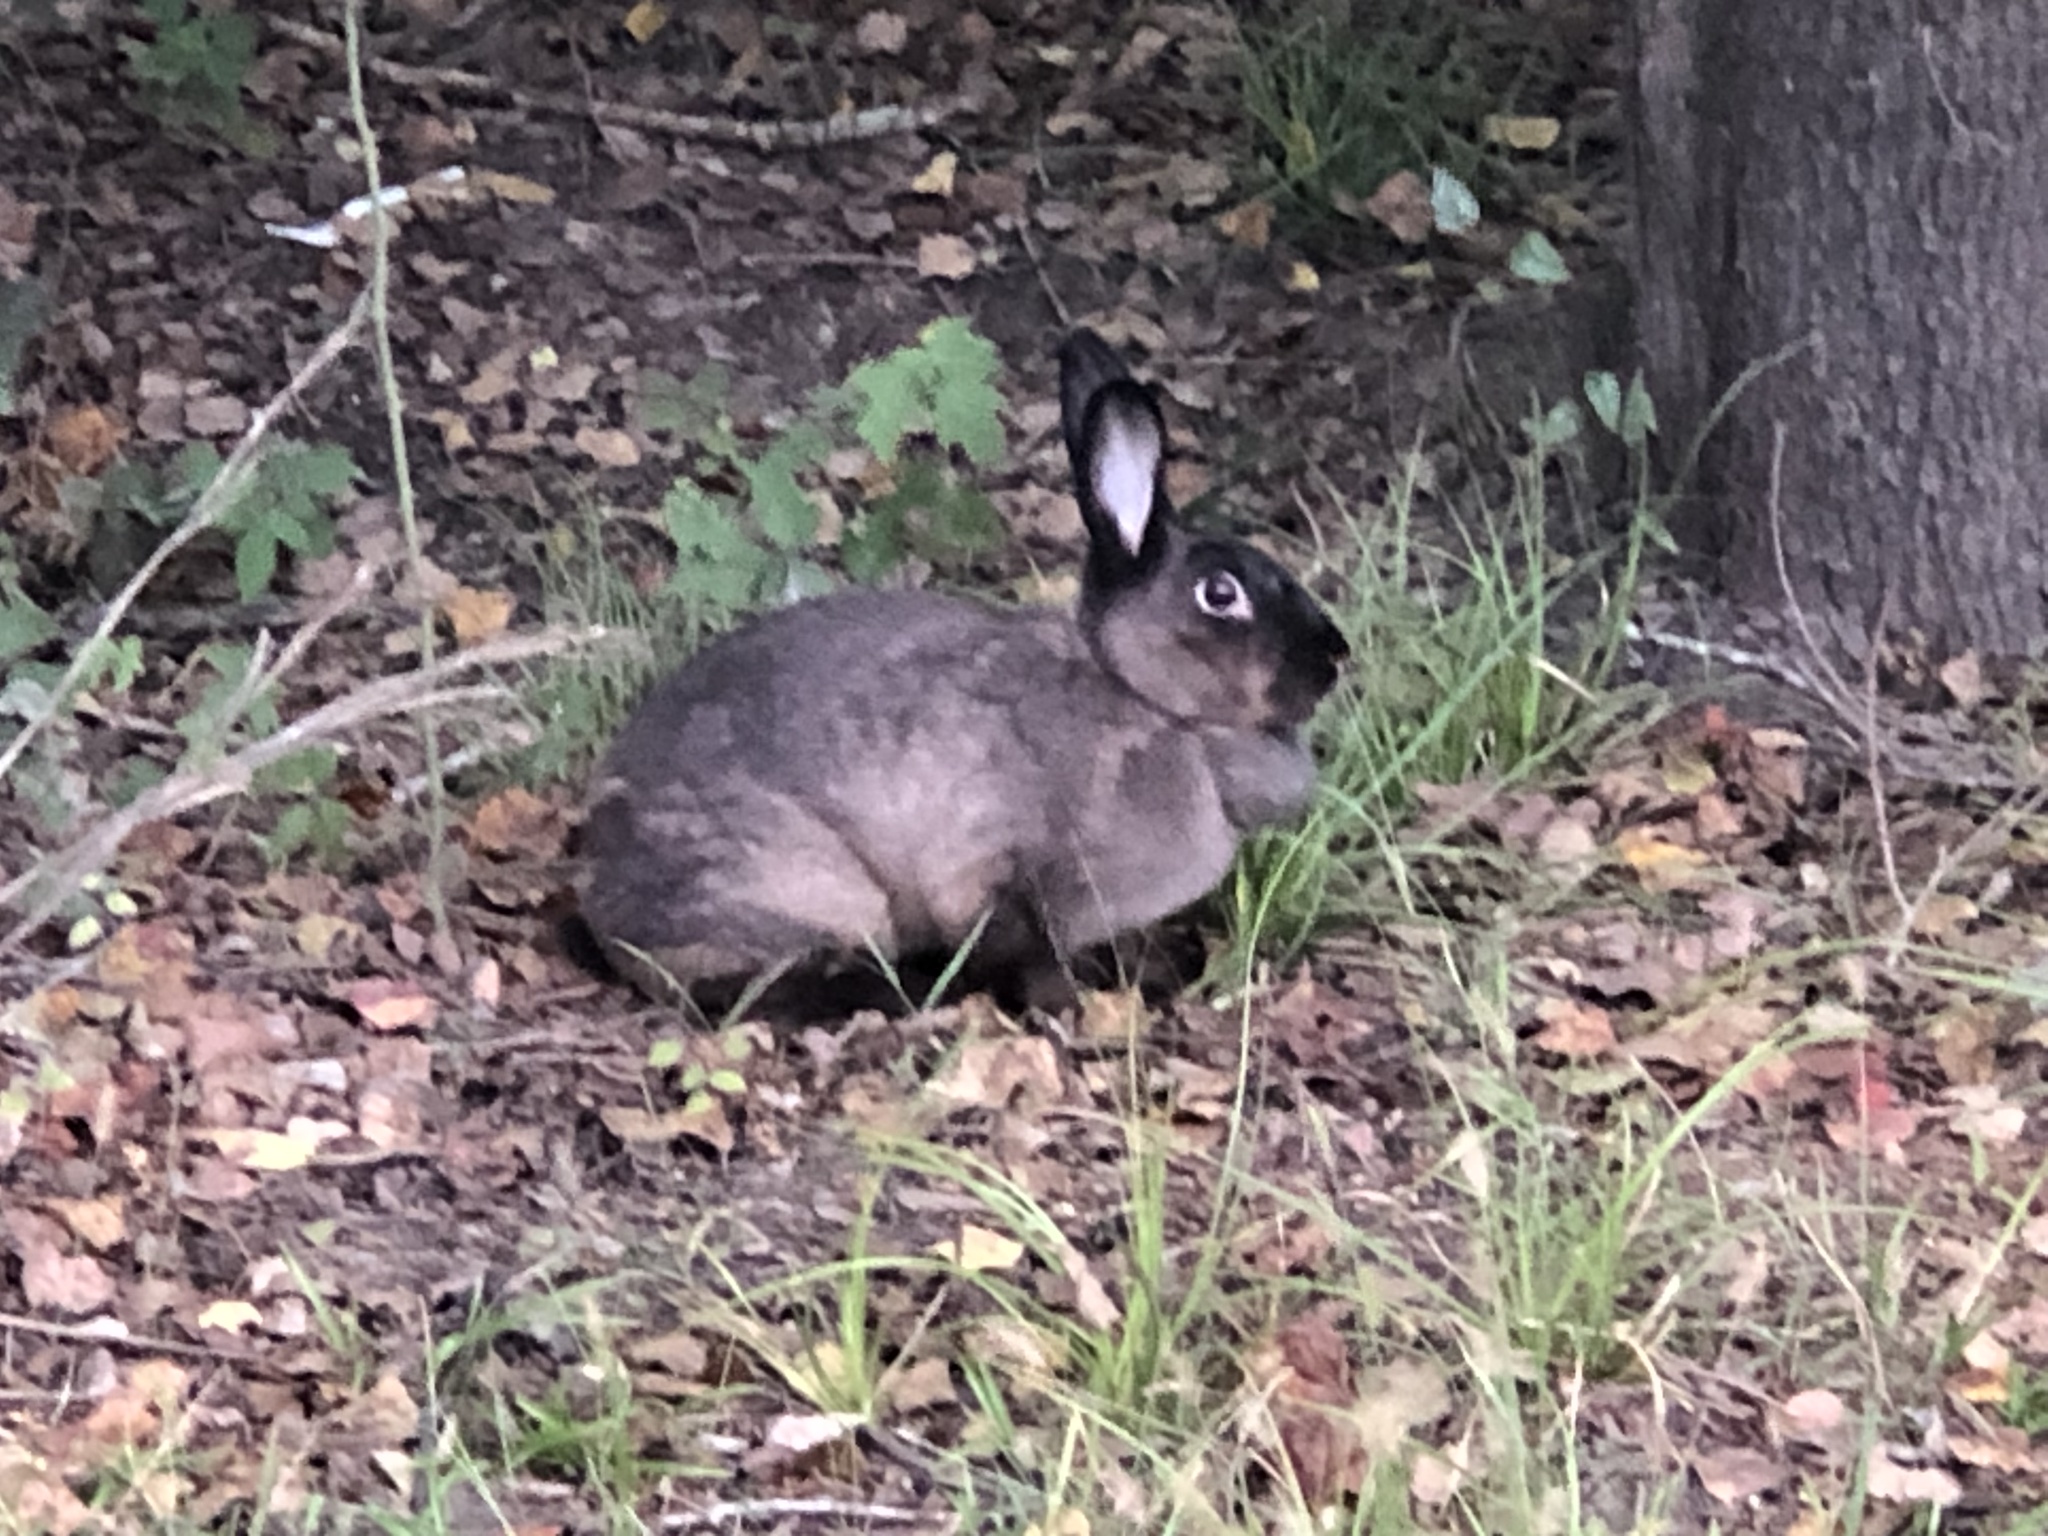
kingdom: Animalia
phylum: Chordata
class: Mammalia
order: Lagomorpha
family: Leporidae
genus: Oryctolagus
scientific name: Oryctolagus cuniculus
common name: European rabbit
